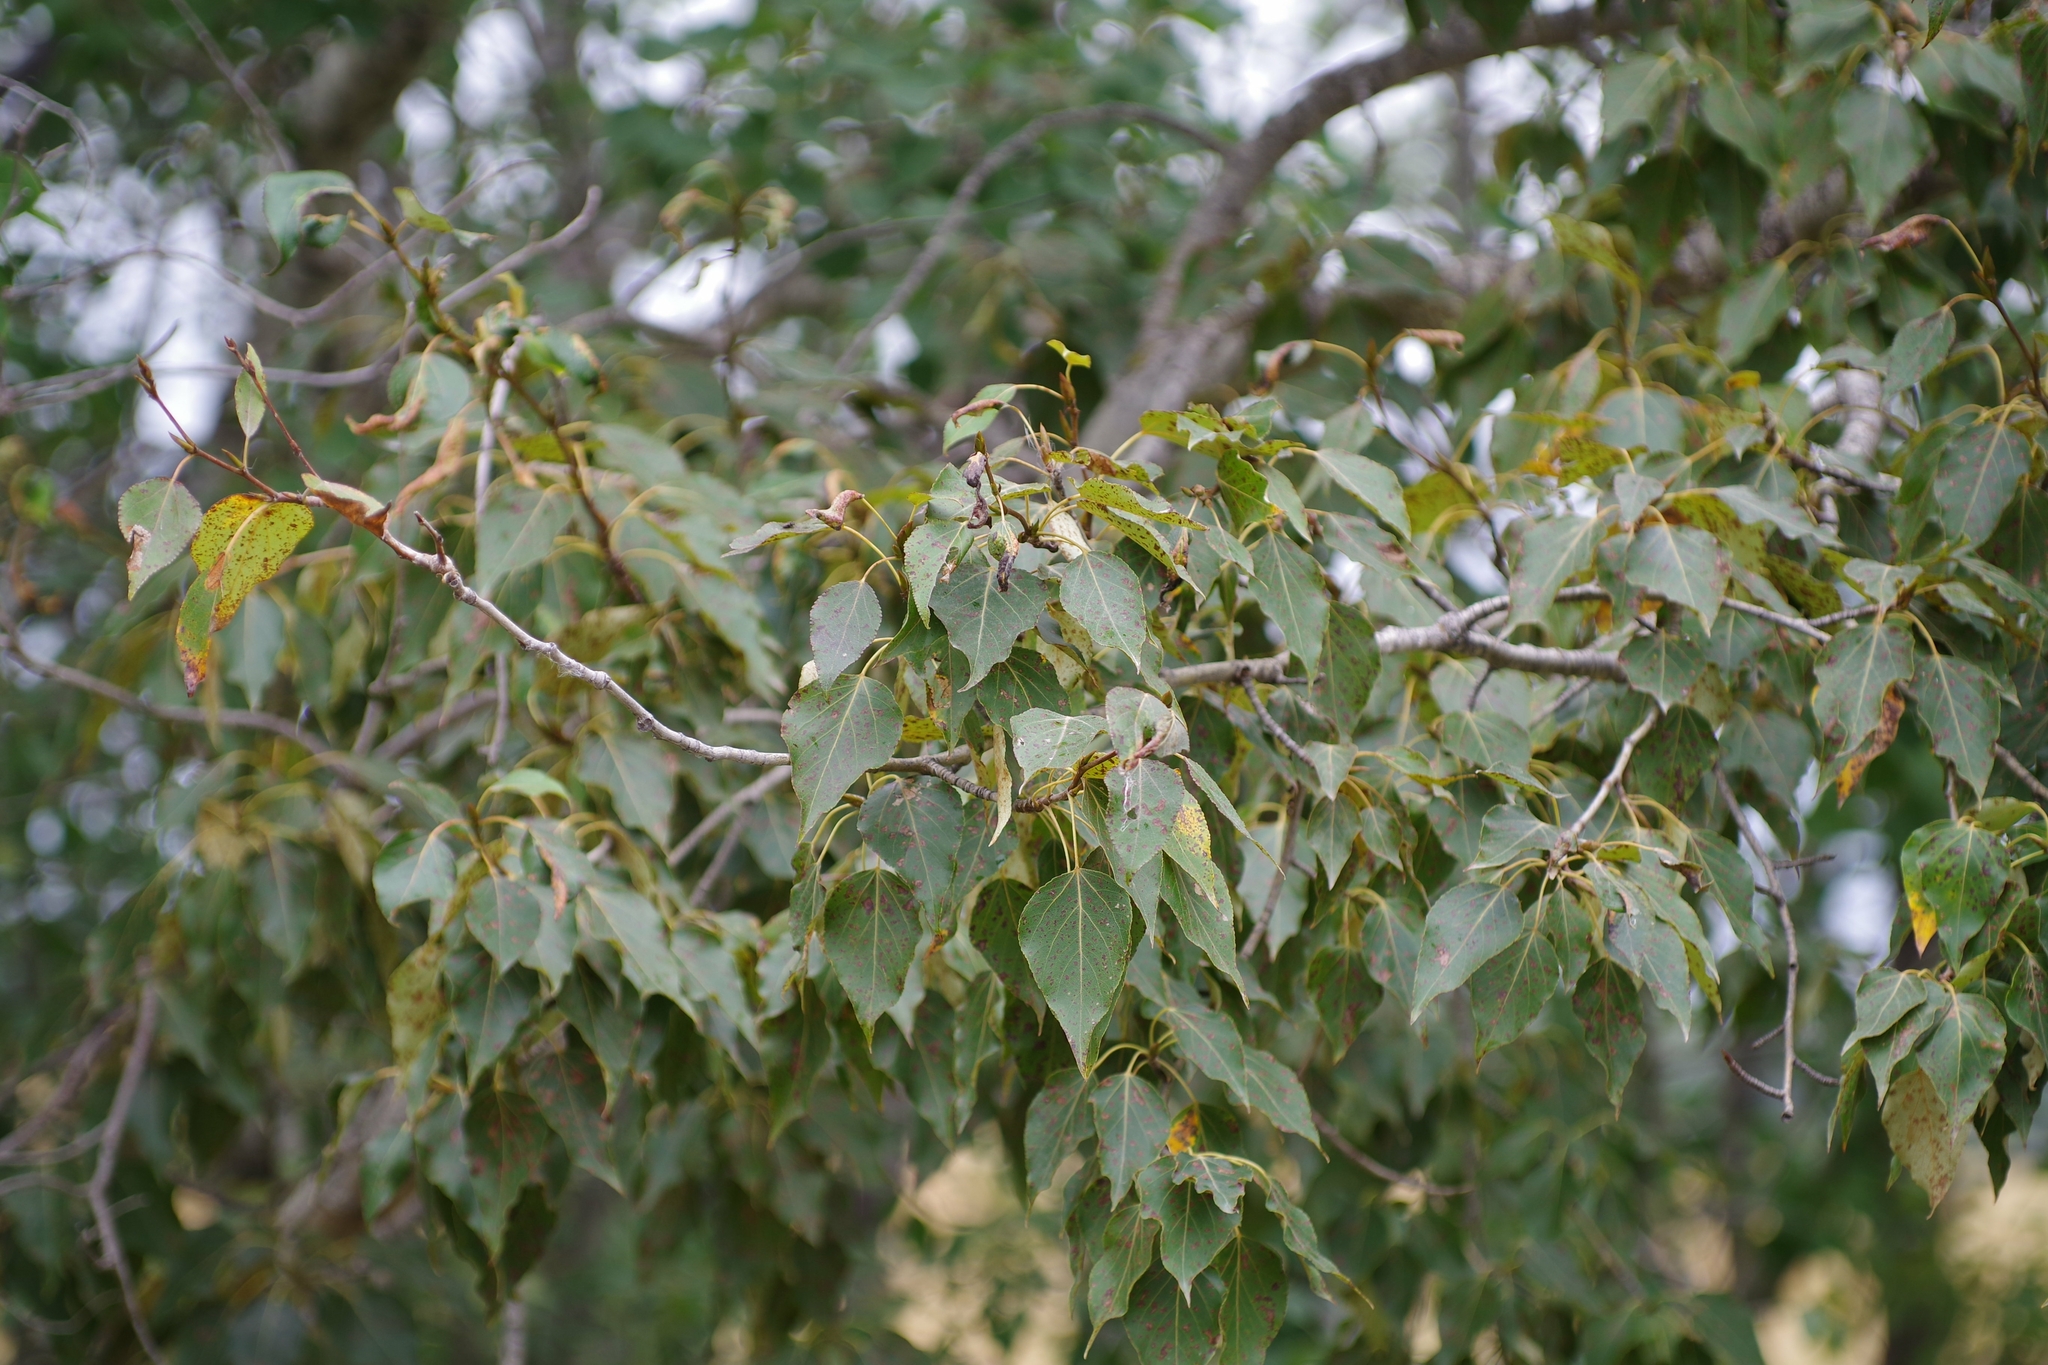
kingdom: Plantae
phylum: Tracheophyta
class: Magnoliopsida
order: Malpighiales
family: Salicaceae
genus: Populus
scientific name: Populus balsamifera
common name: Balsam poplar
